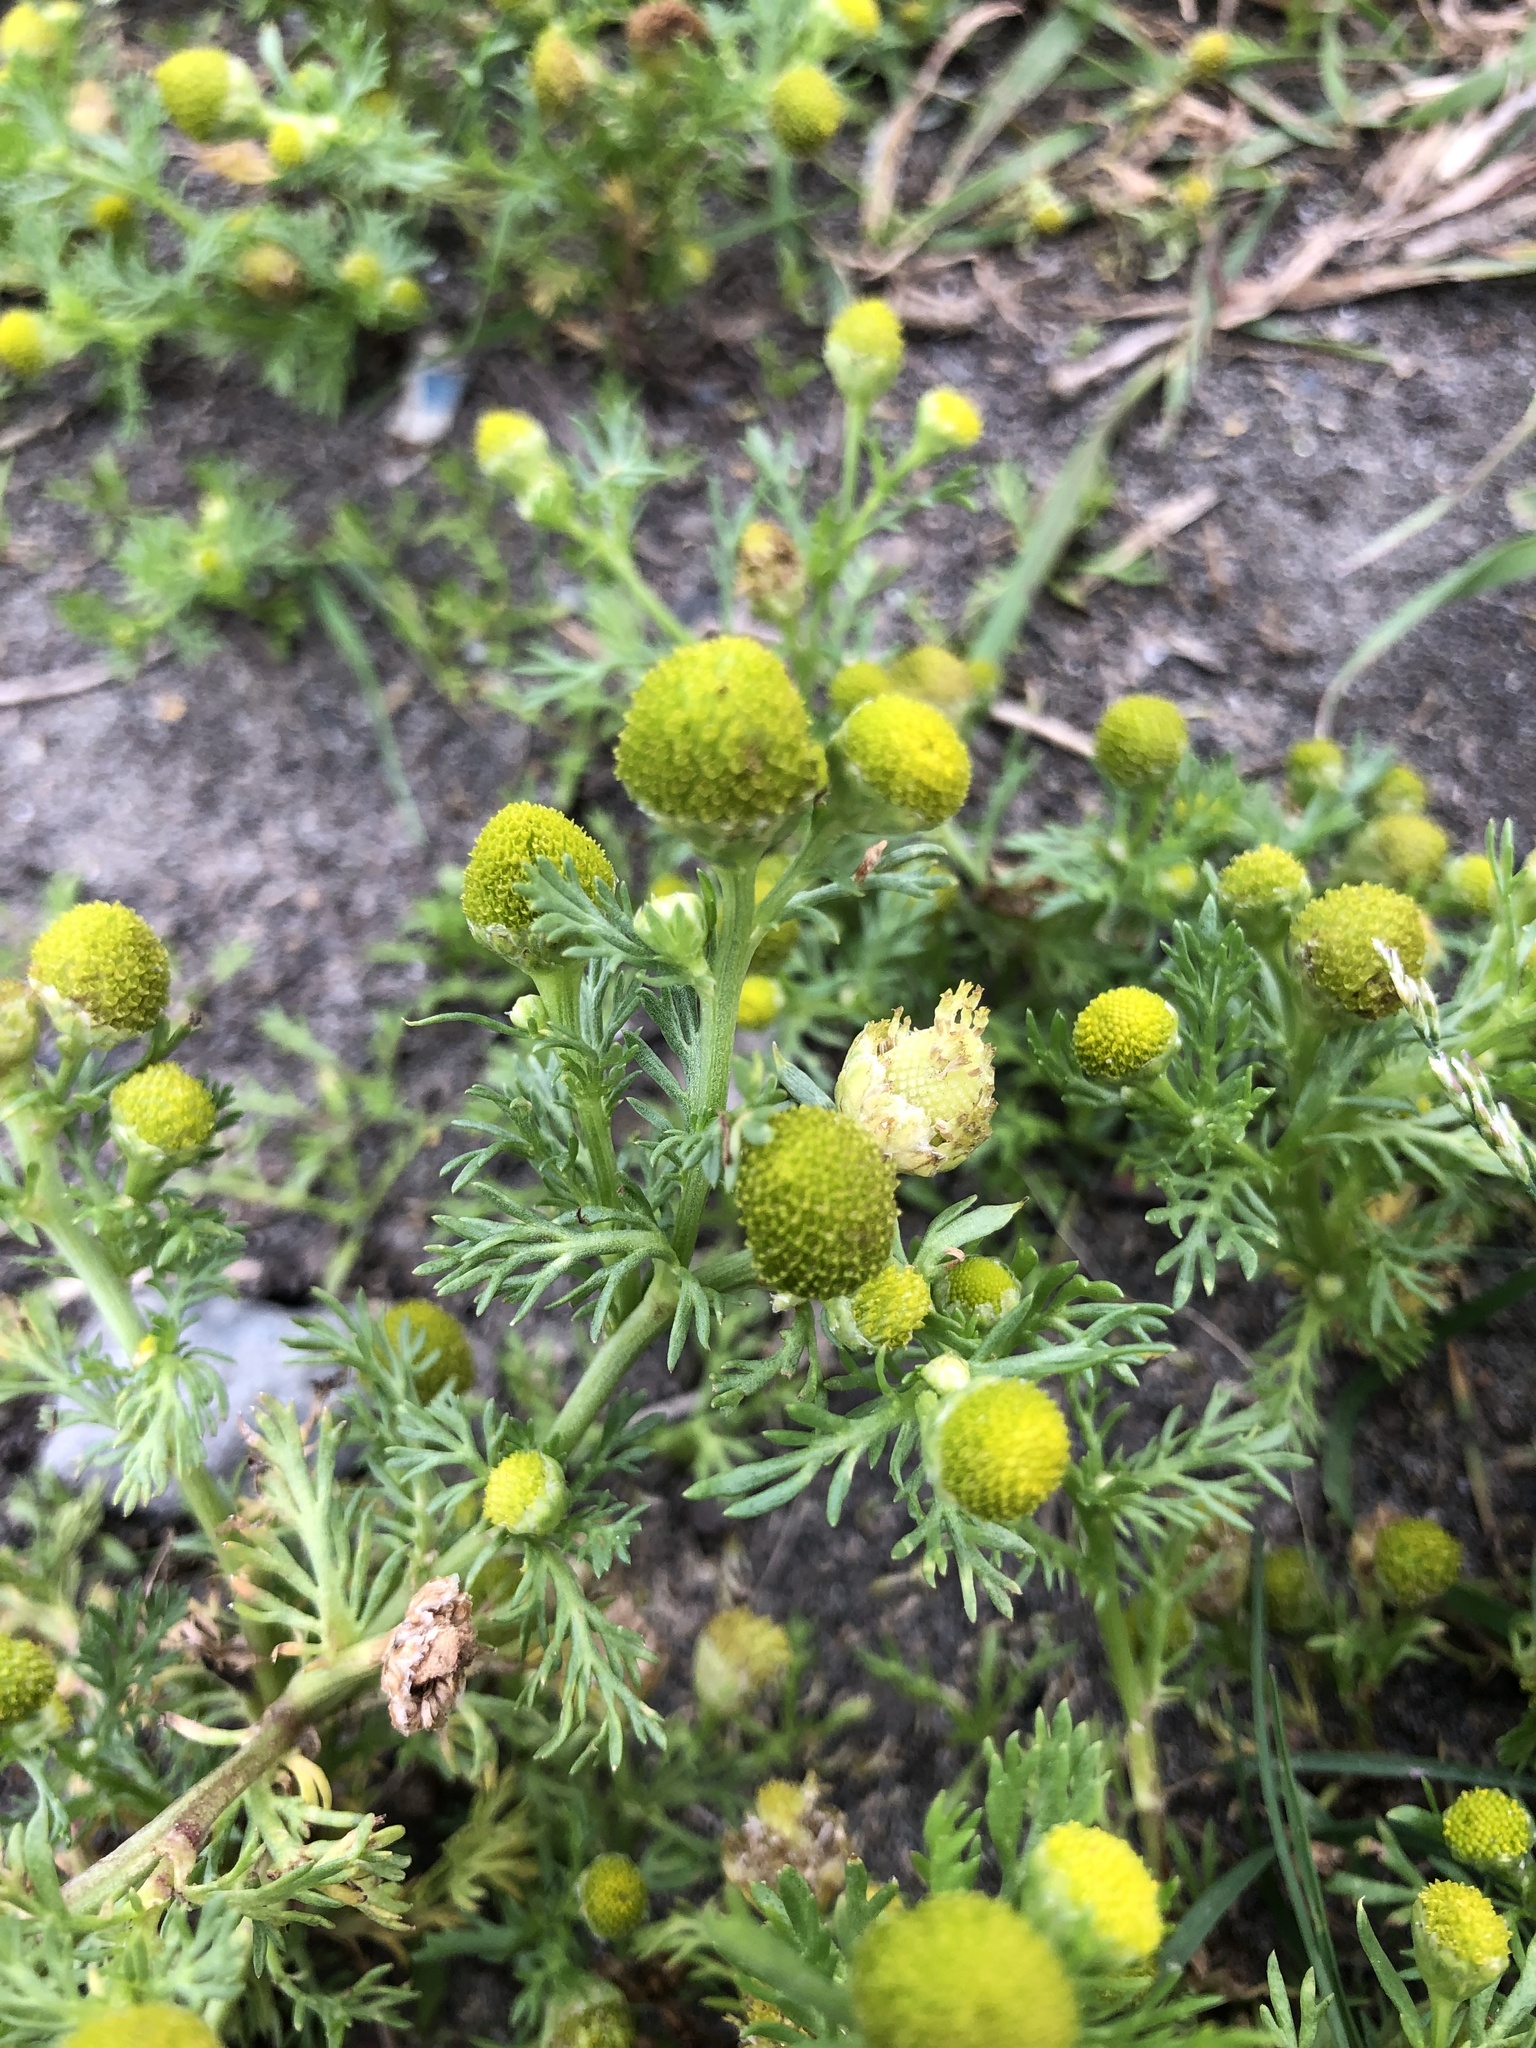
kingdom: Plantae
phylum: Tracheophyta
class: Magnoliopsida
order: Asterales
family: Asteraceae
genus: Matricaria
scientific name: Matricaria discoidea
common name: Disc mayweed
